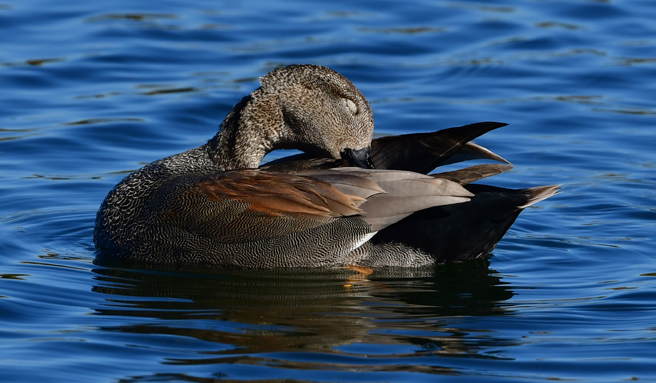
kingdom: Animalia
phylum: Chordata
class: Aves
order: Anseriformes
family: Anatidae
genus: Mareca
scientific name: Mareca strepera
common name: Gadwall
